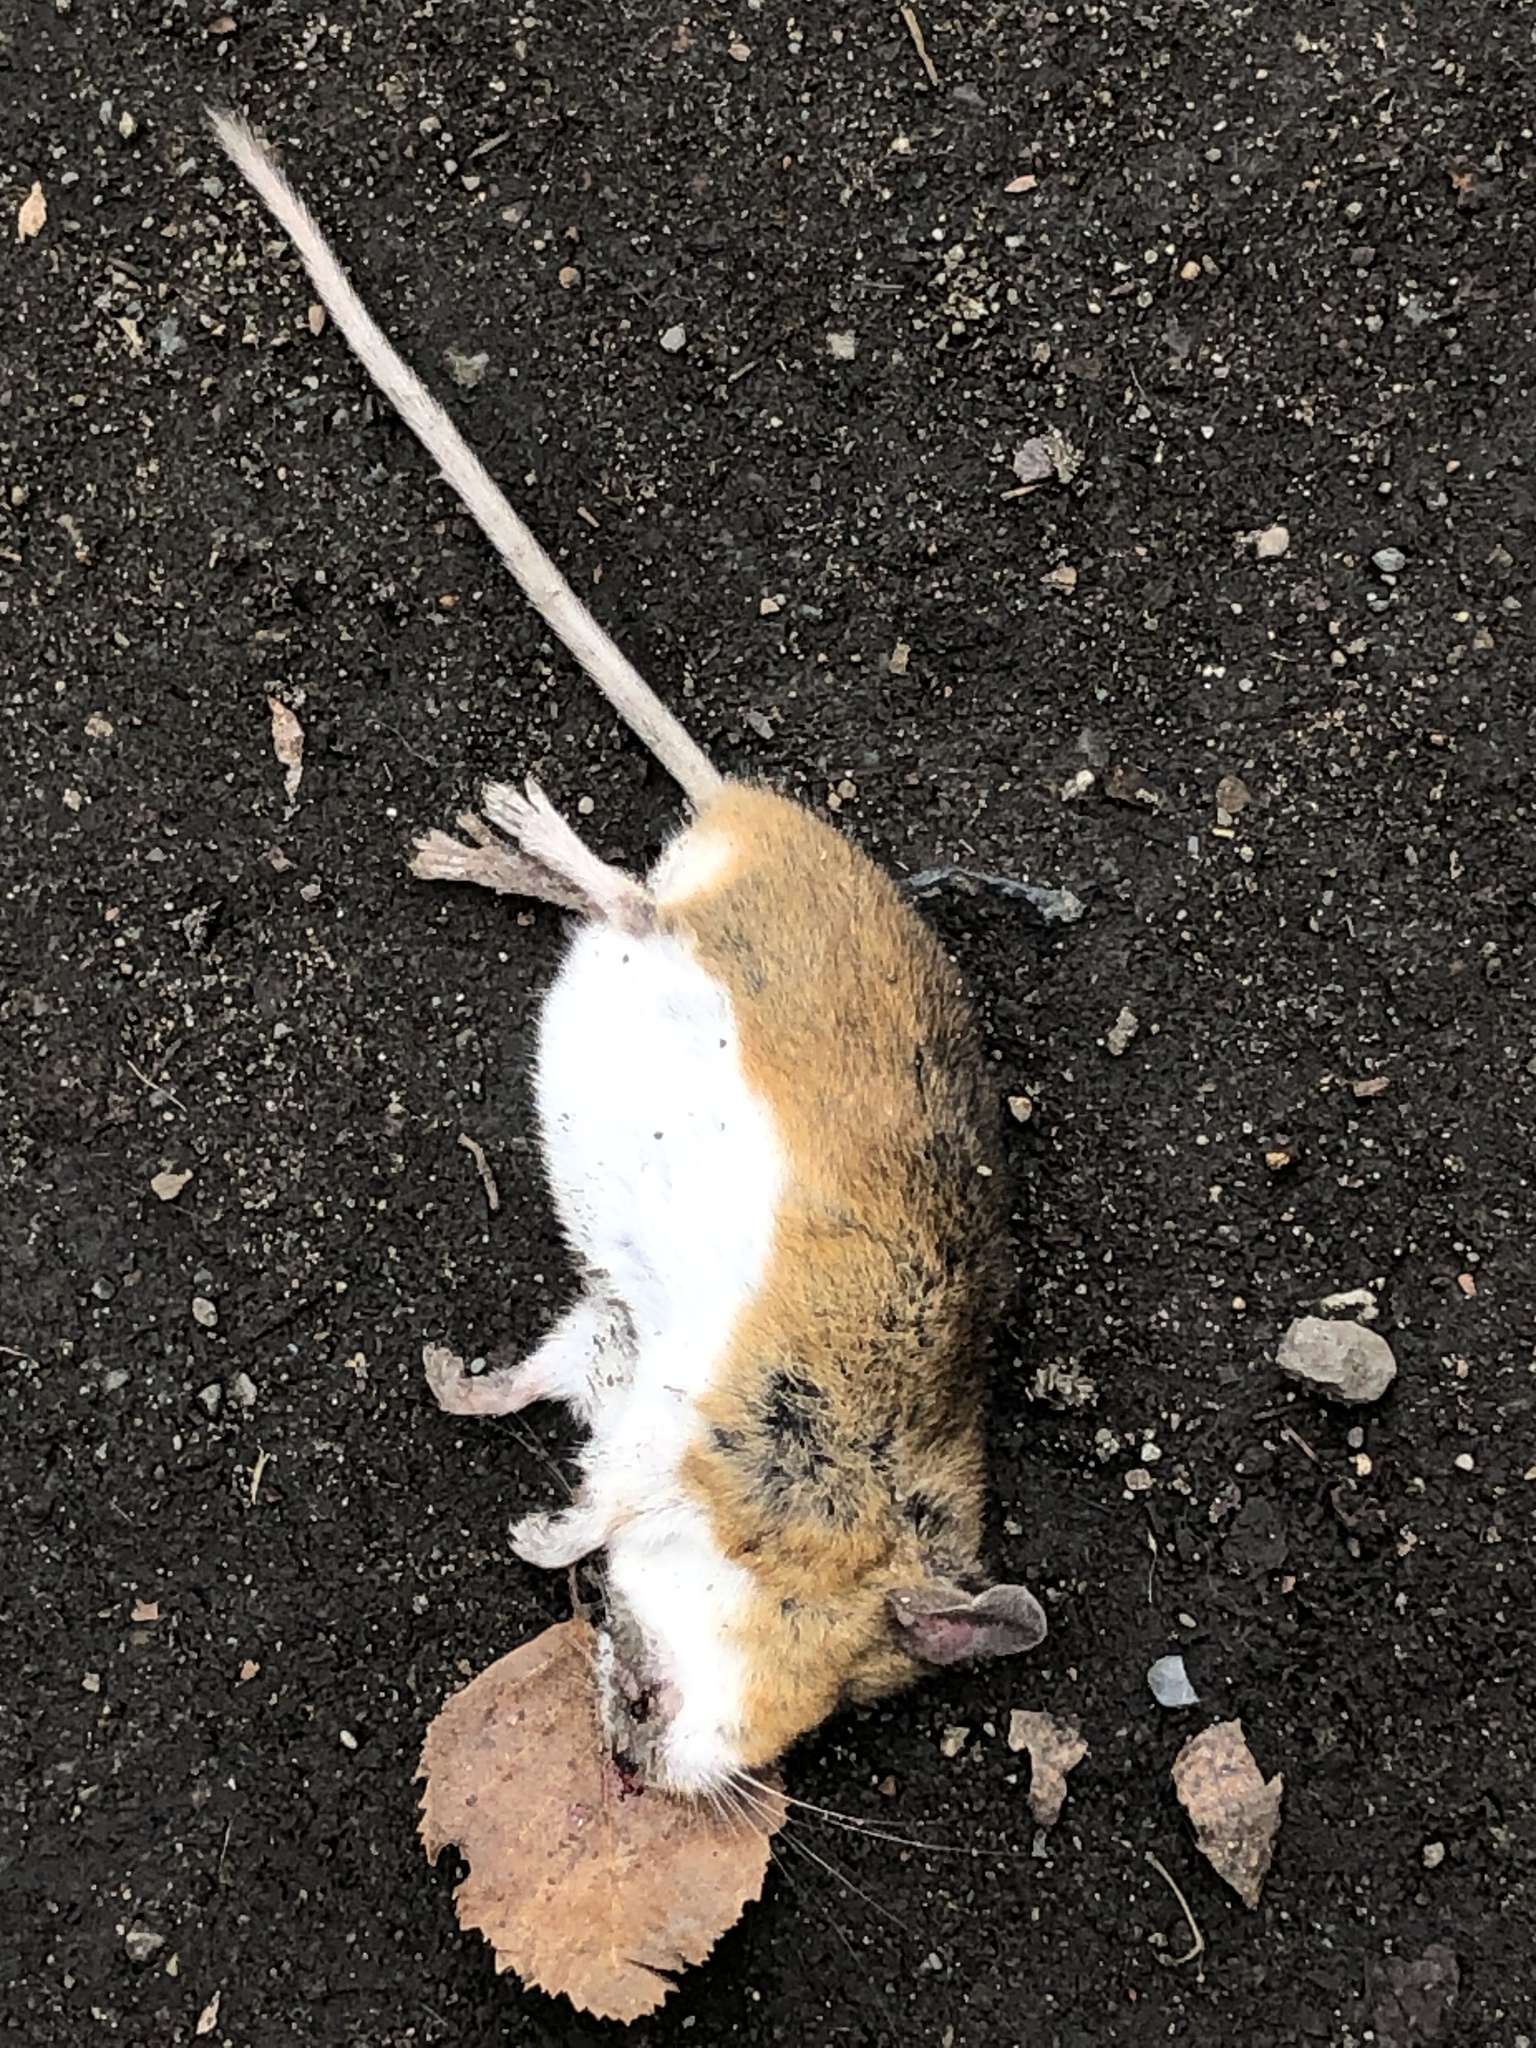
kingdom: Animalia
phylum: Chordata
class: Mammalia
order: Rodentia
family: Cricetidae
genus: Peromyscus
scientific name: Peromyscus leucopus
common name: White-footed deermouse
